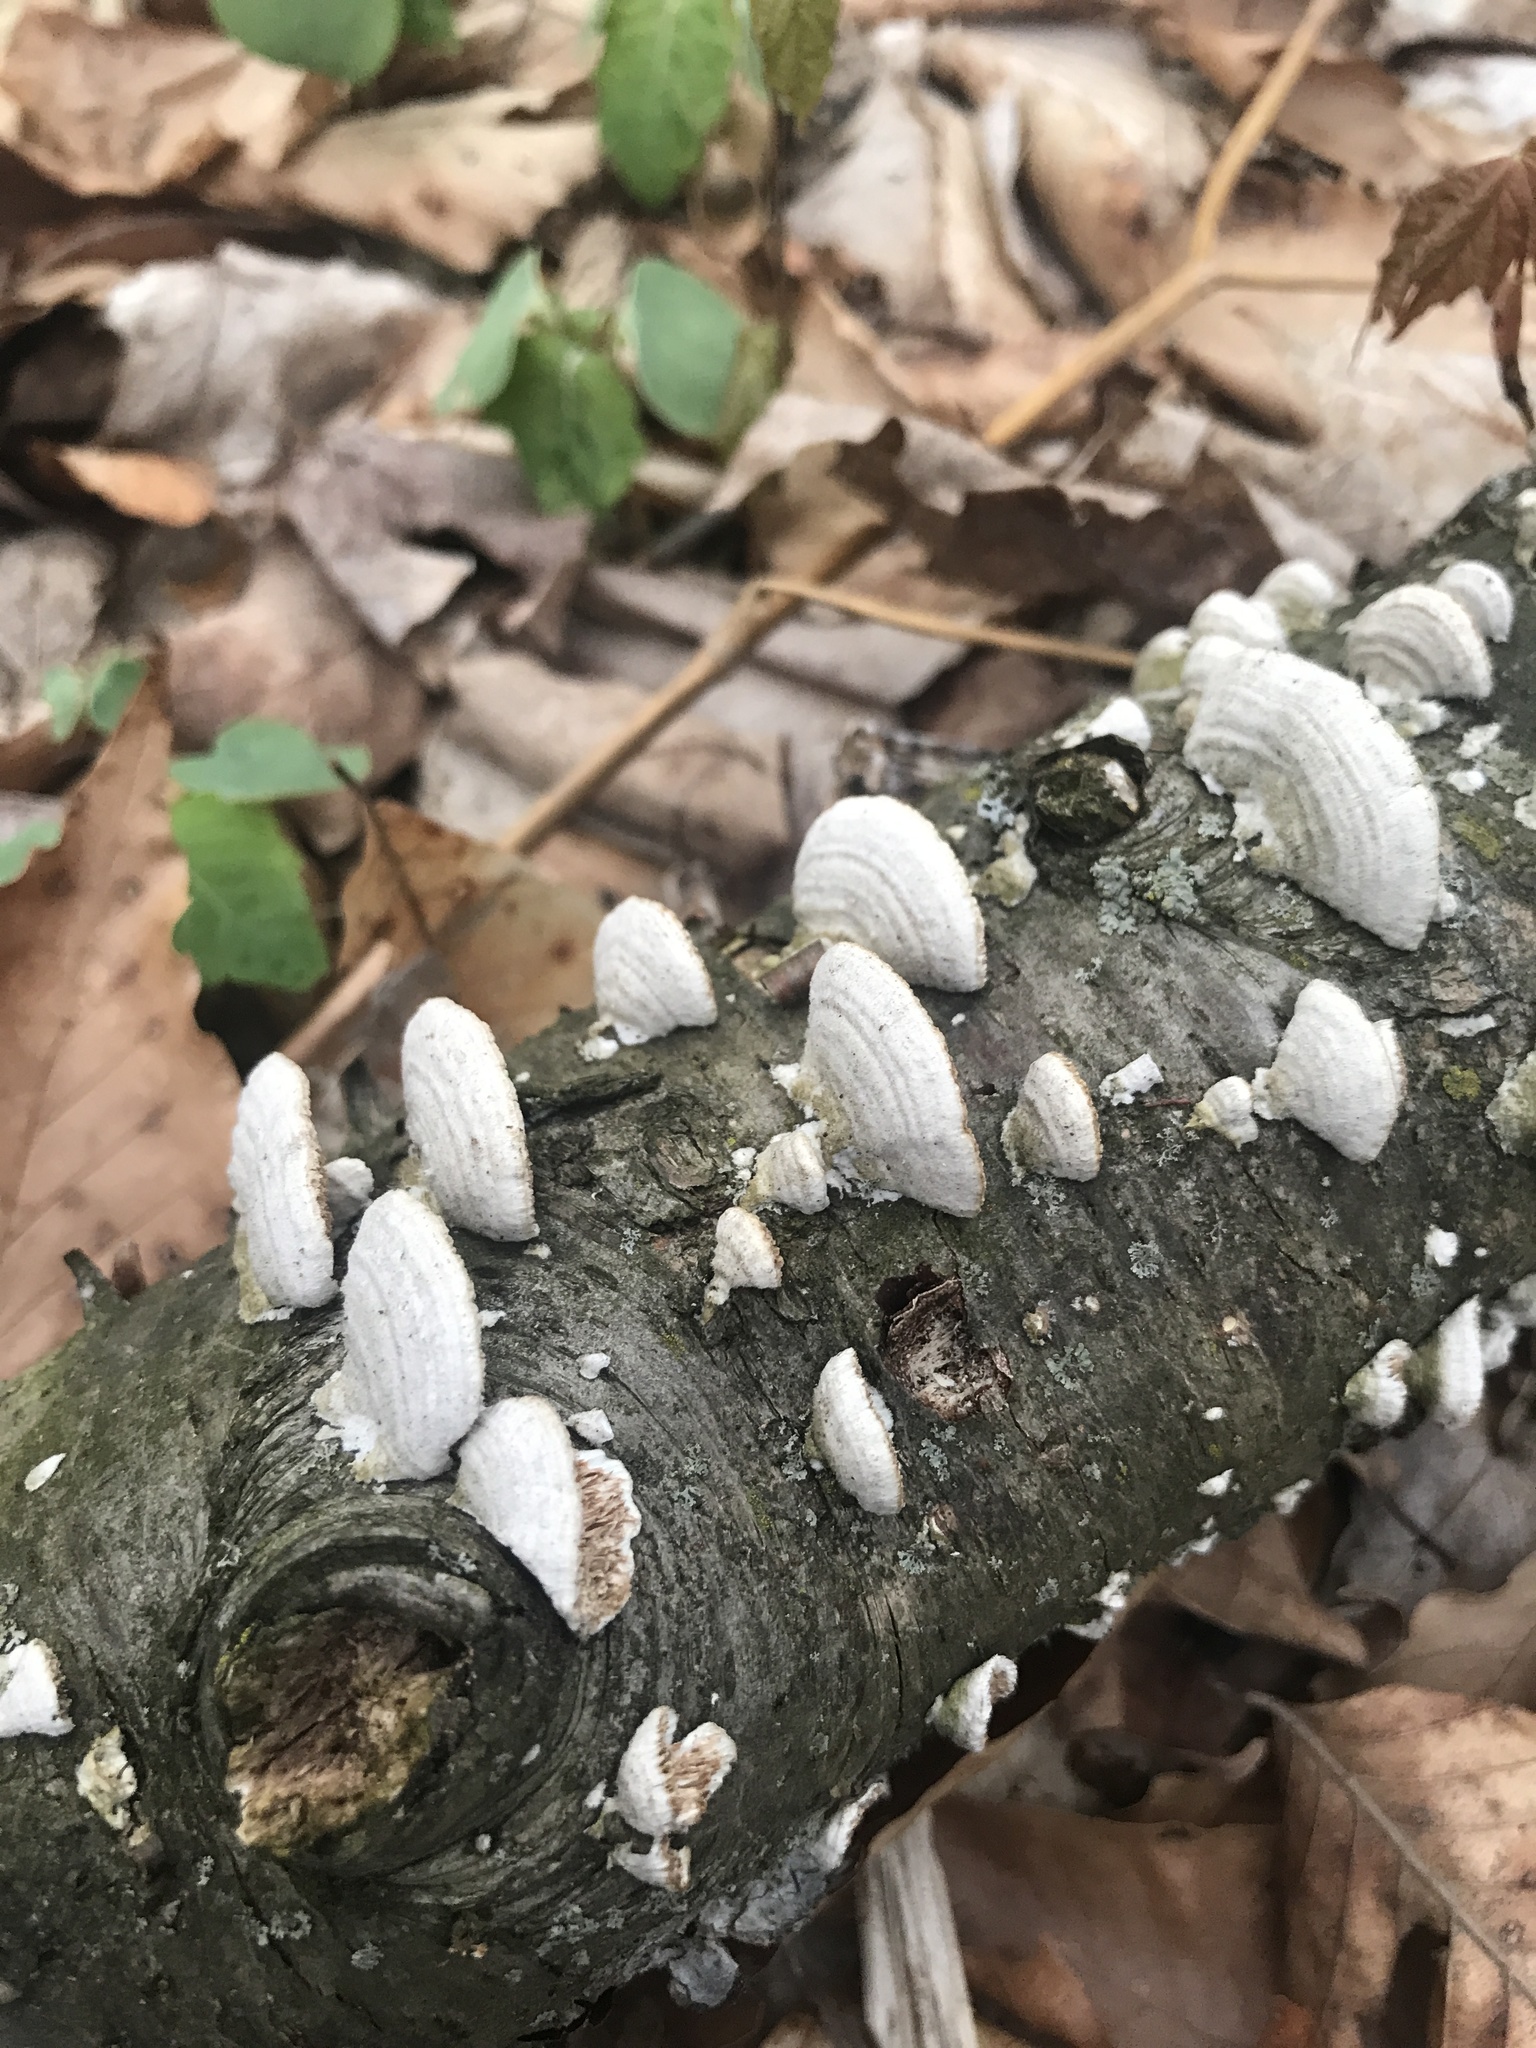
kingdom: Fungi
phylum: Basidiomycota
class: Agaricomycetes
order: Hymenochaetales
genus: Trichaptum
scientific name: Trichaptum biforme
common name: Violet-toothed polypore
